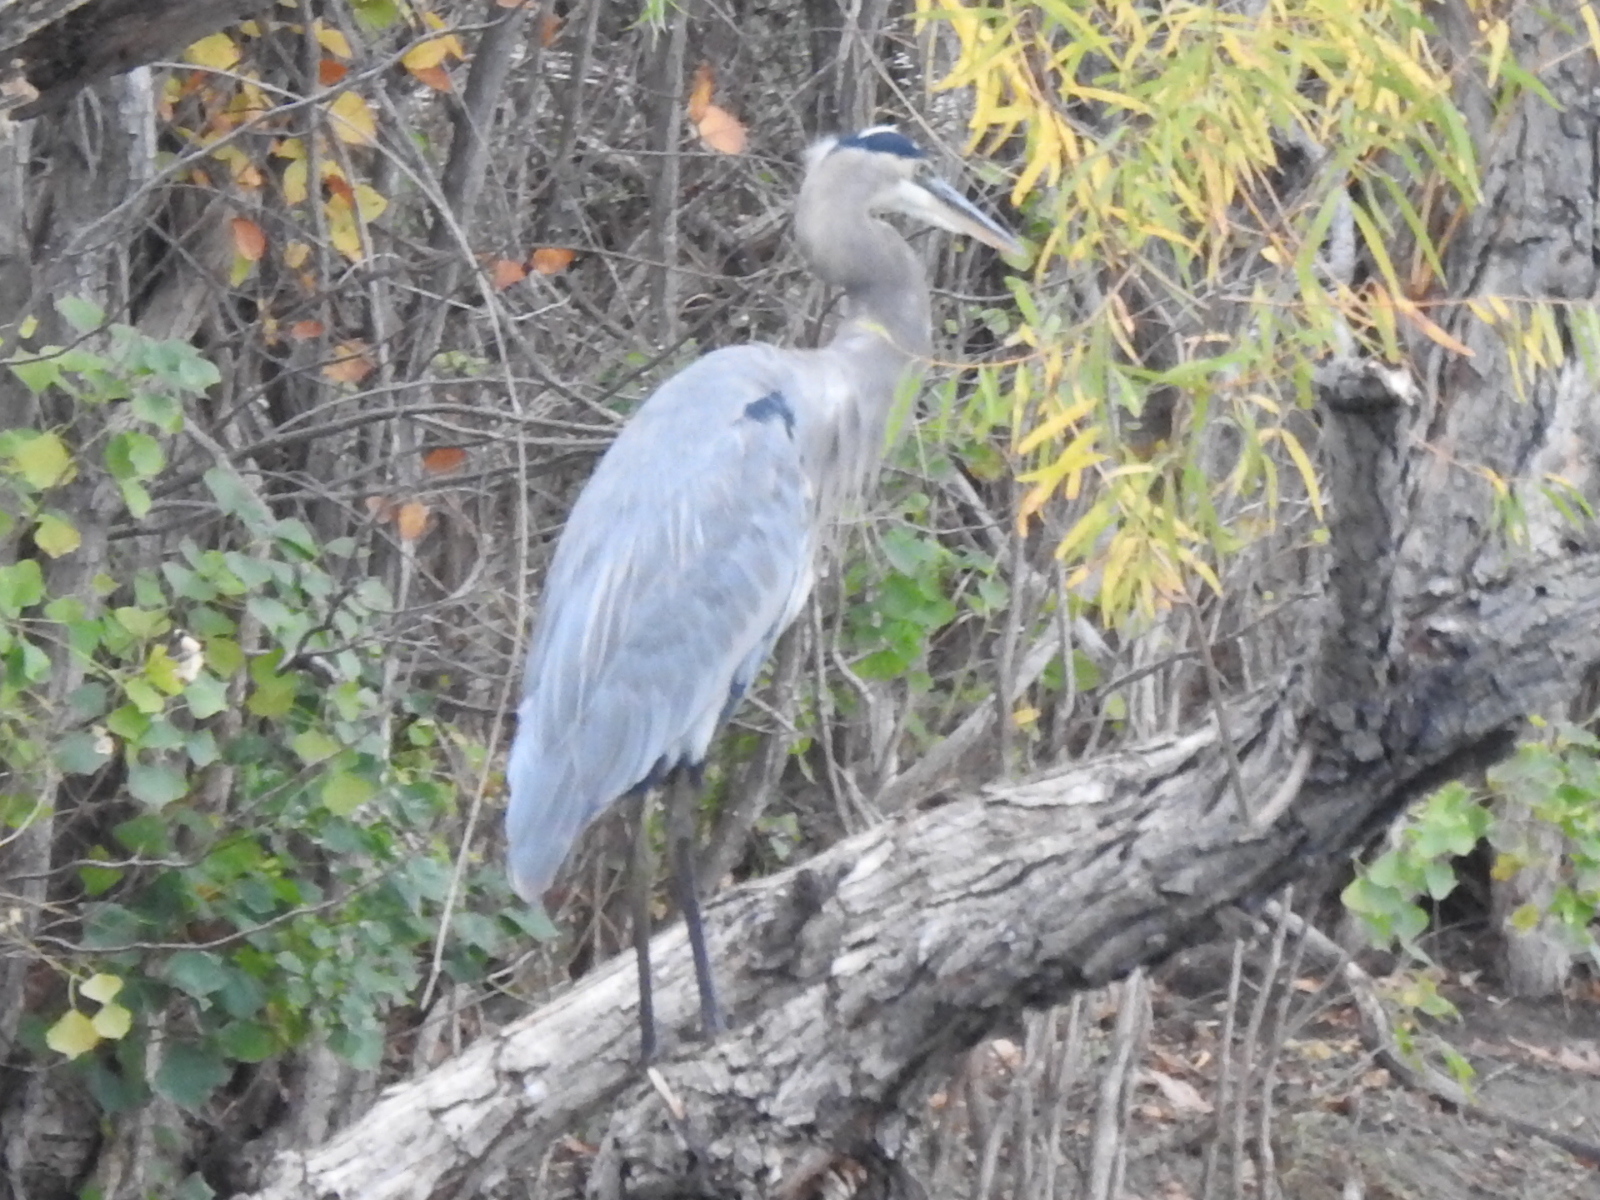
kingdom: Animalia
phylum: Chordata
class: Aves
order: Pelecaniformes
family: Ardeidae
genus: Ardea
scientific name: Ardea herodias
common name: Great blue heron
